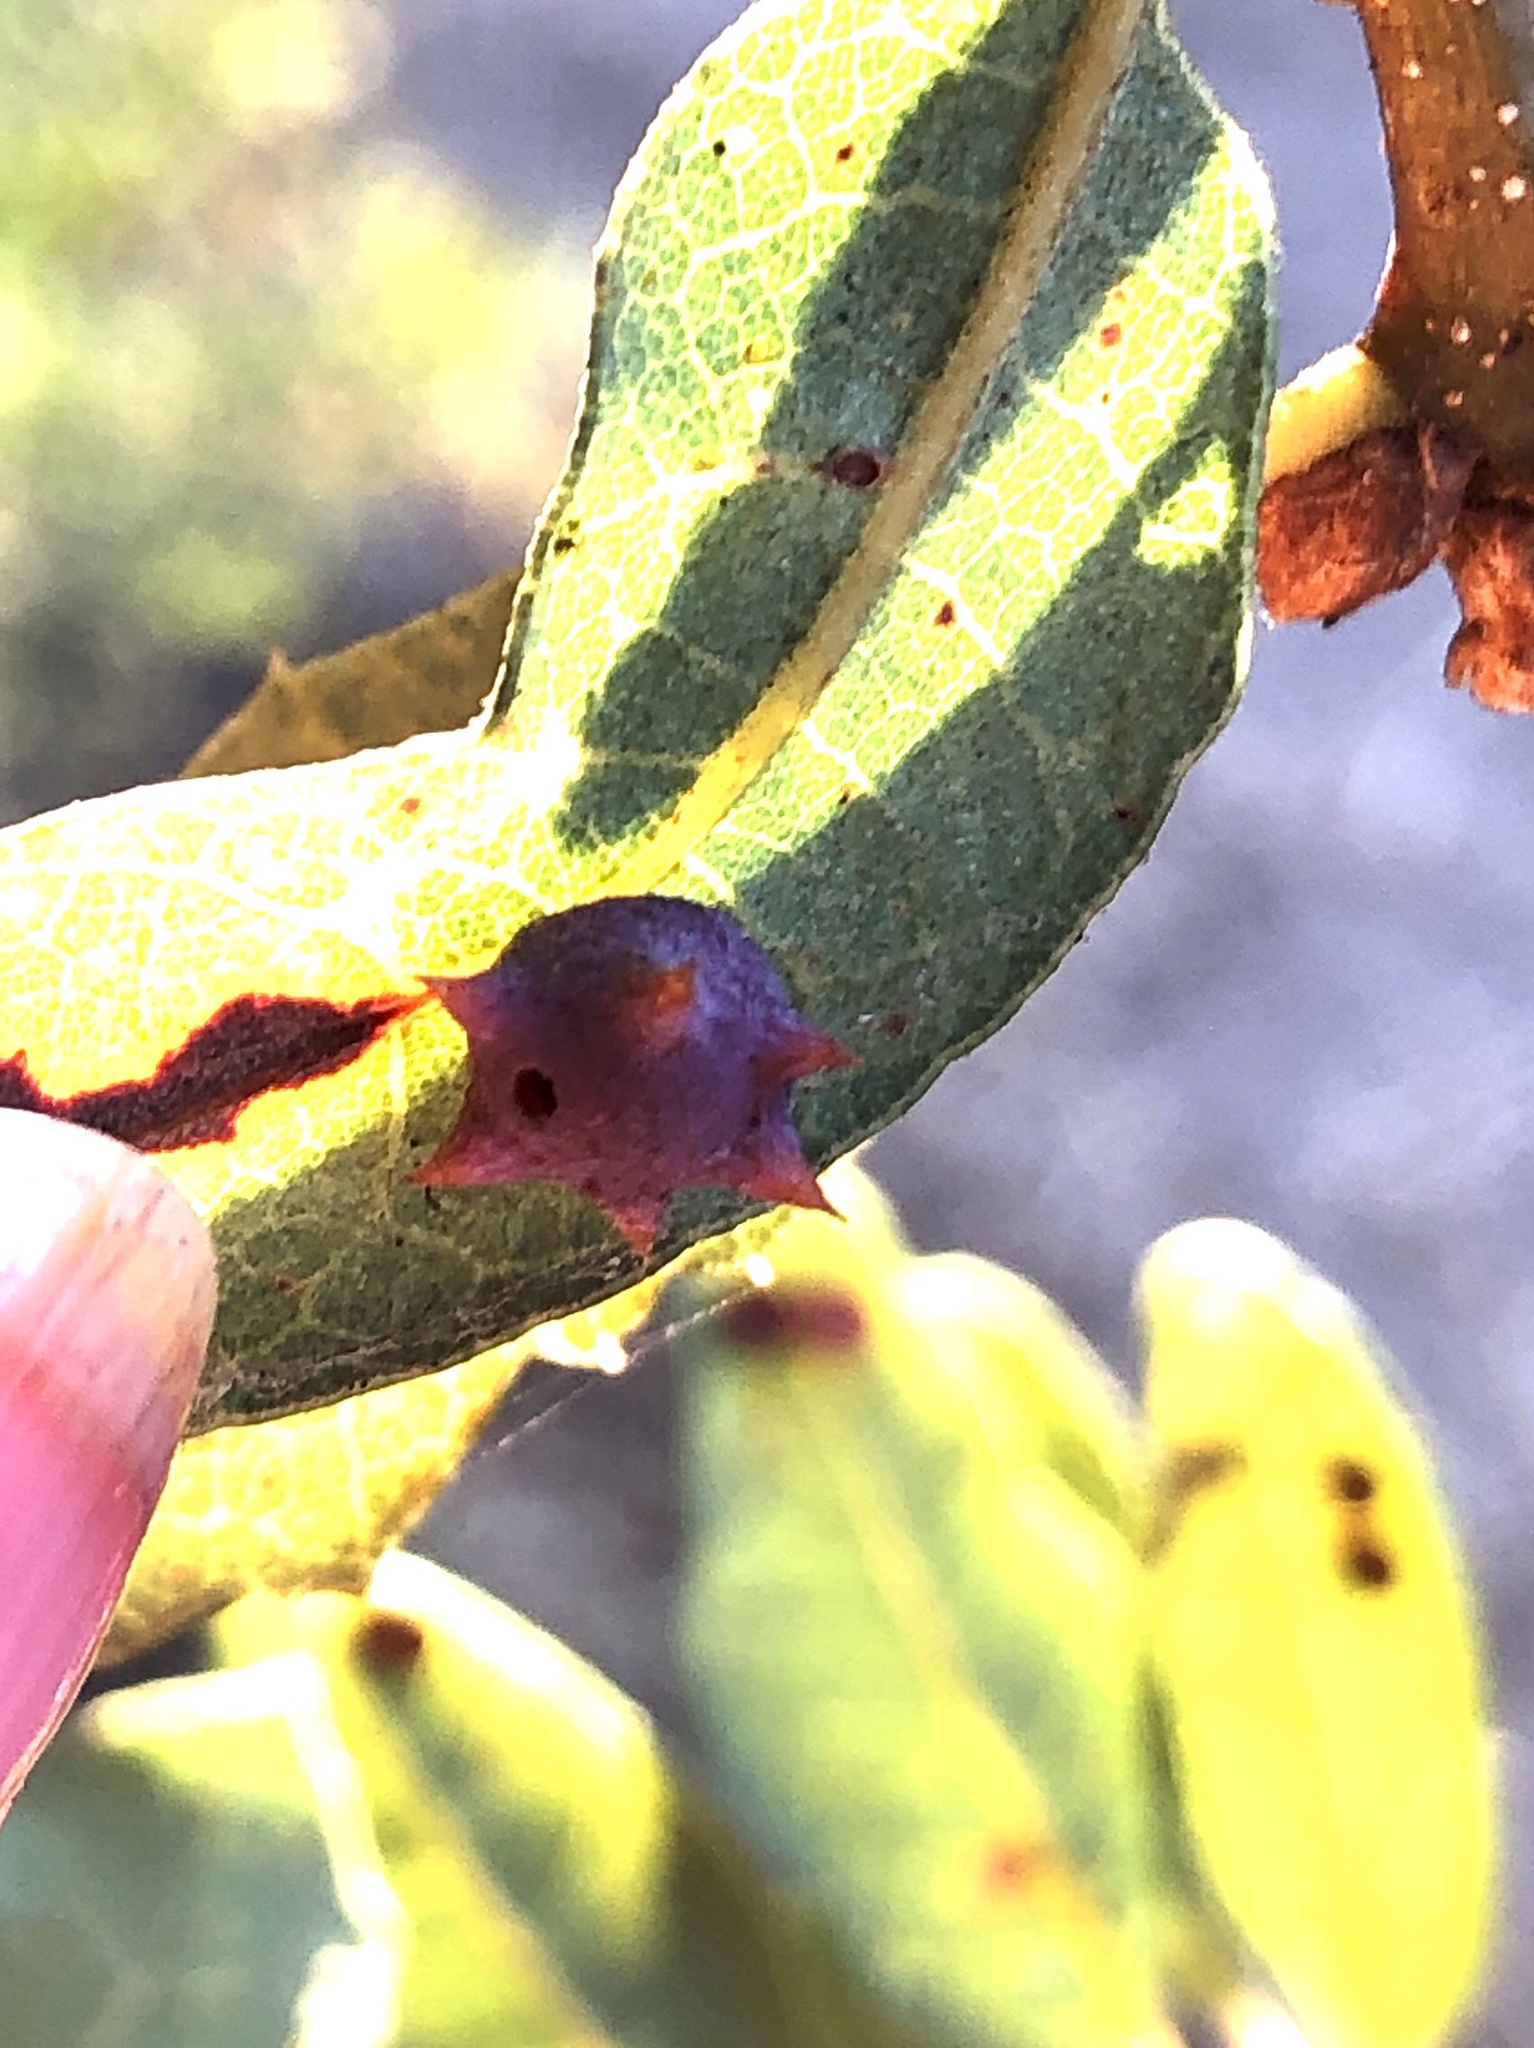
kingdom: Animalia
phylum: Arthropoda
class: Insecta
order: Hymenoptera
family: Cynipidae
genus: Cynips
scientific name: Cynips douglasi
